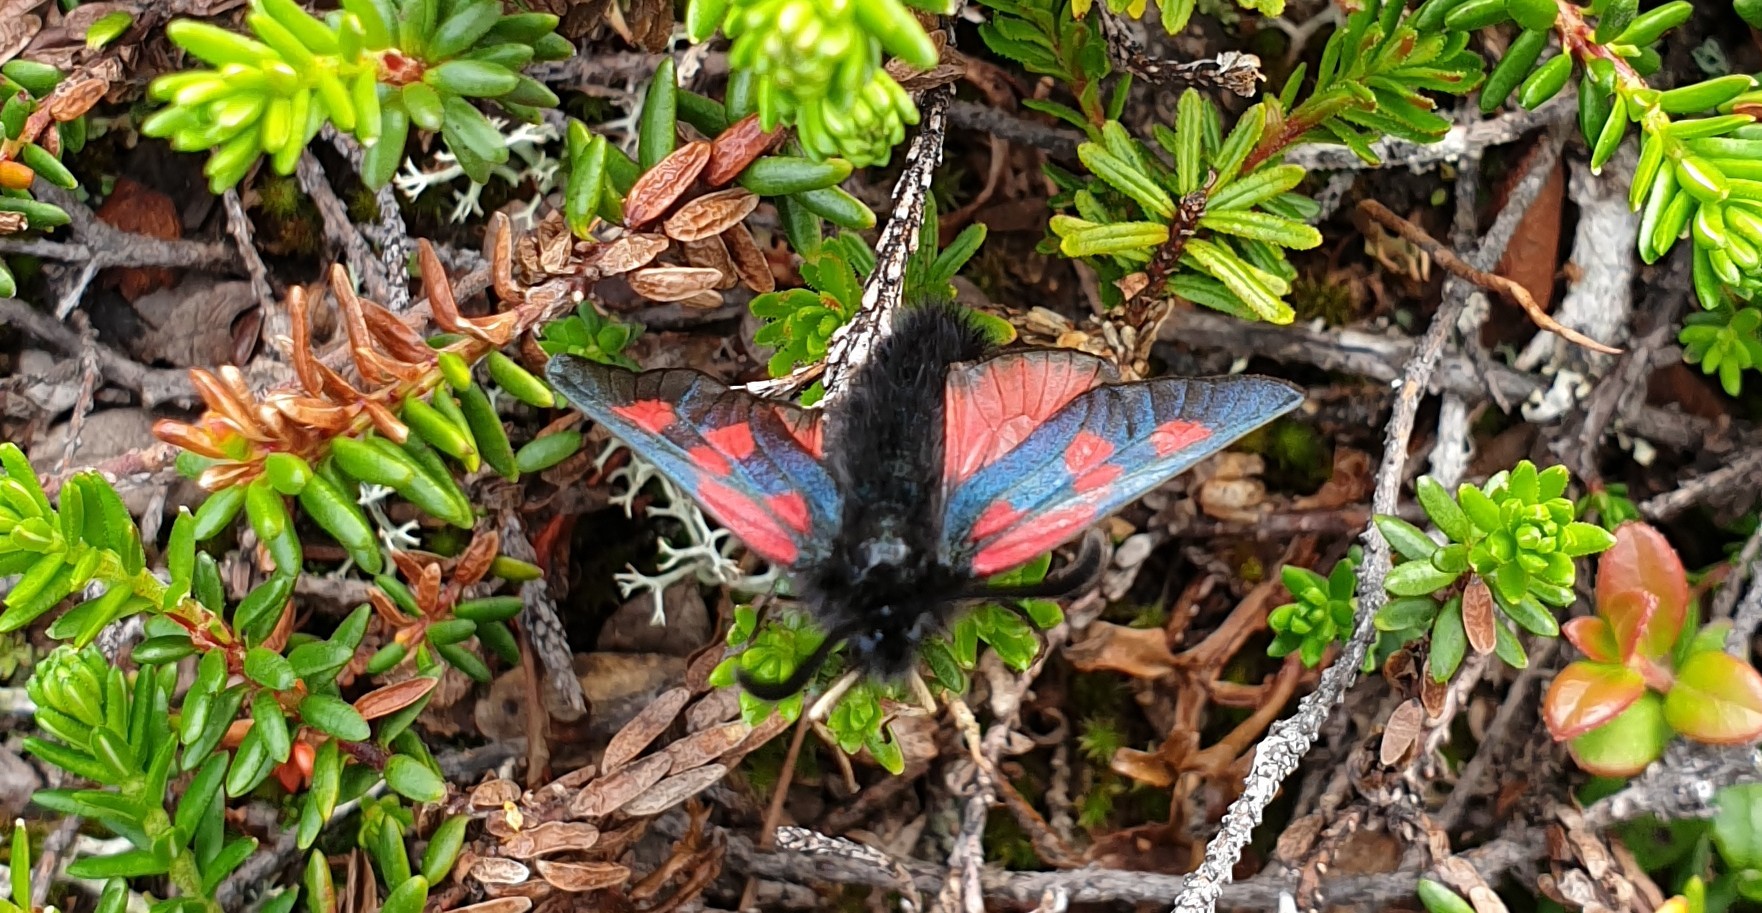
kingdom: Animalia
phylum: Arthropoda
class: Insecta
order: Lepidoptera
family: Zygaenidae
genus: Zygaena
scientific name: Zygaena exulans
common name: Scotch burnet
